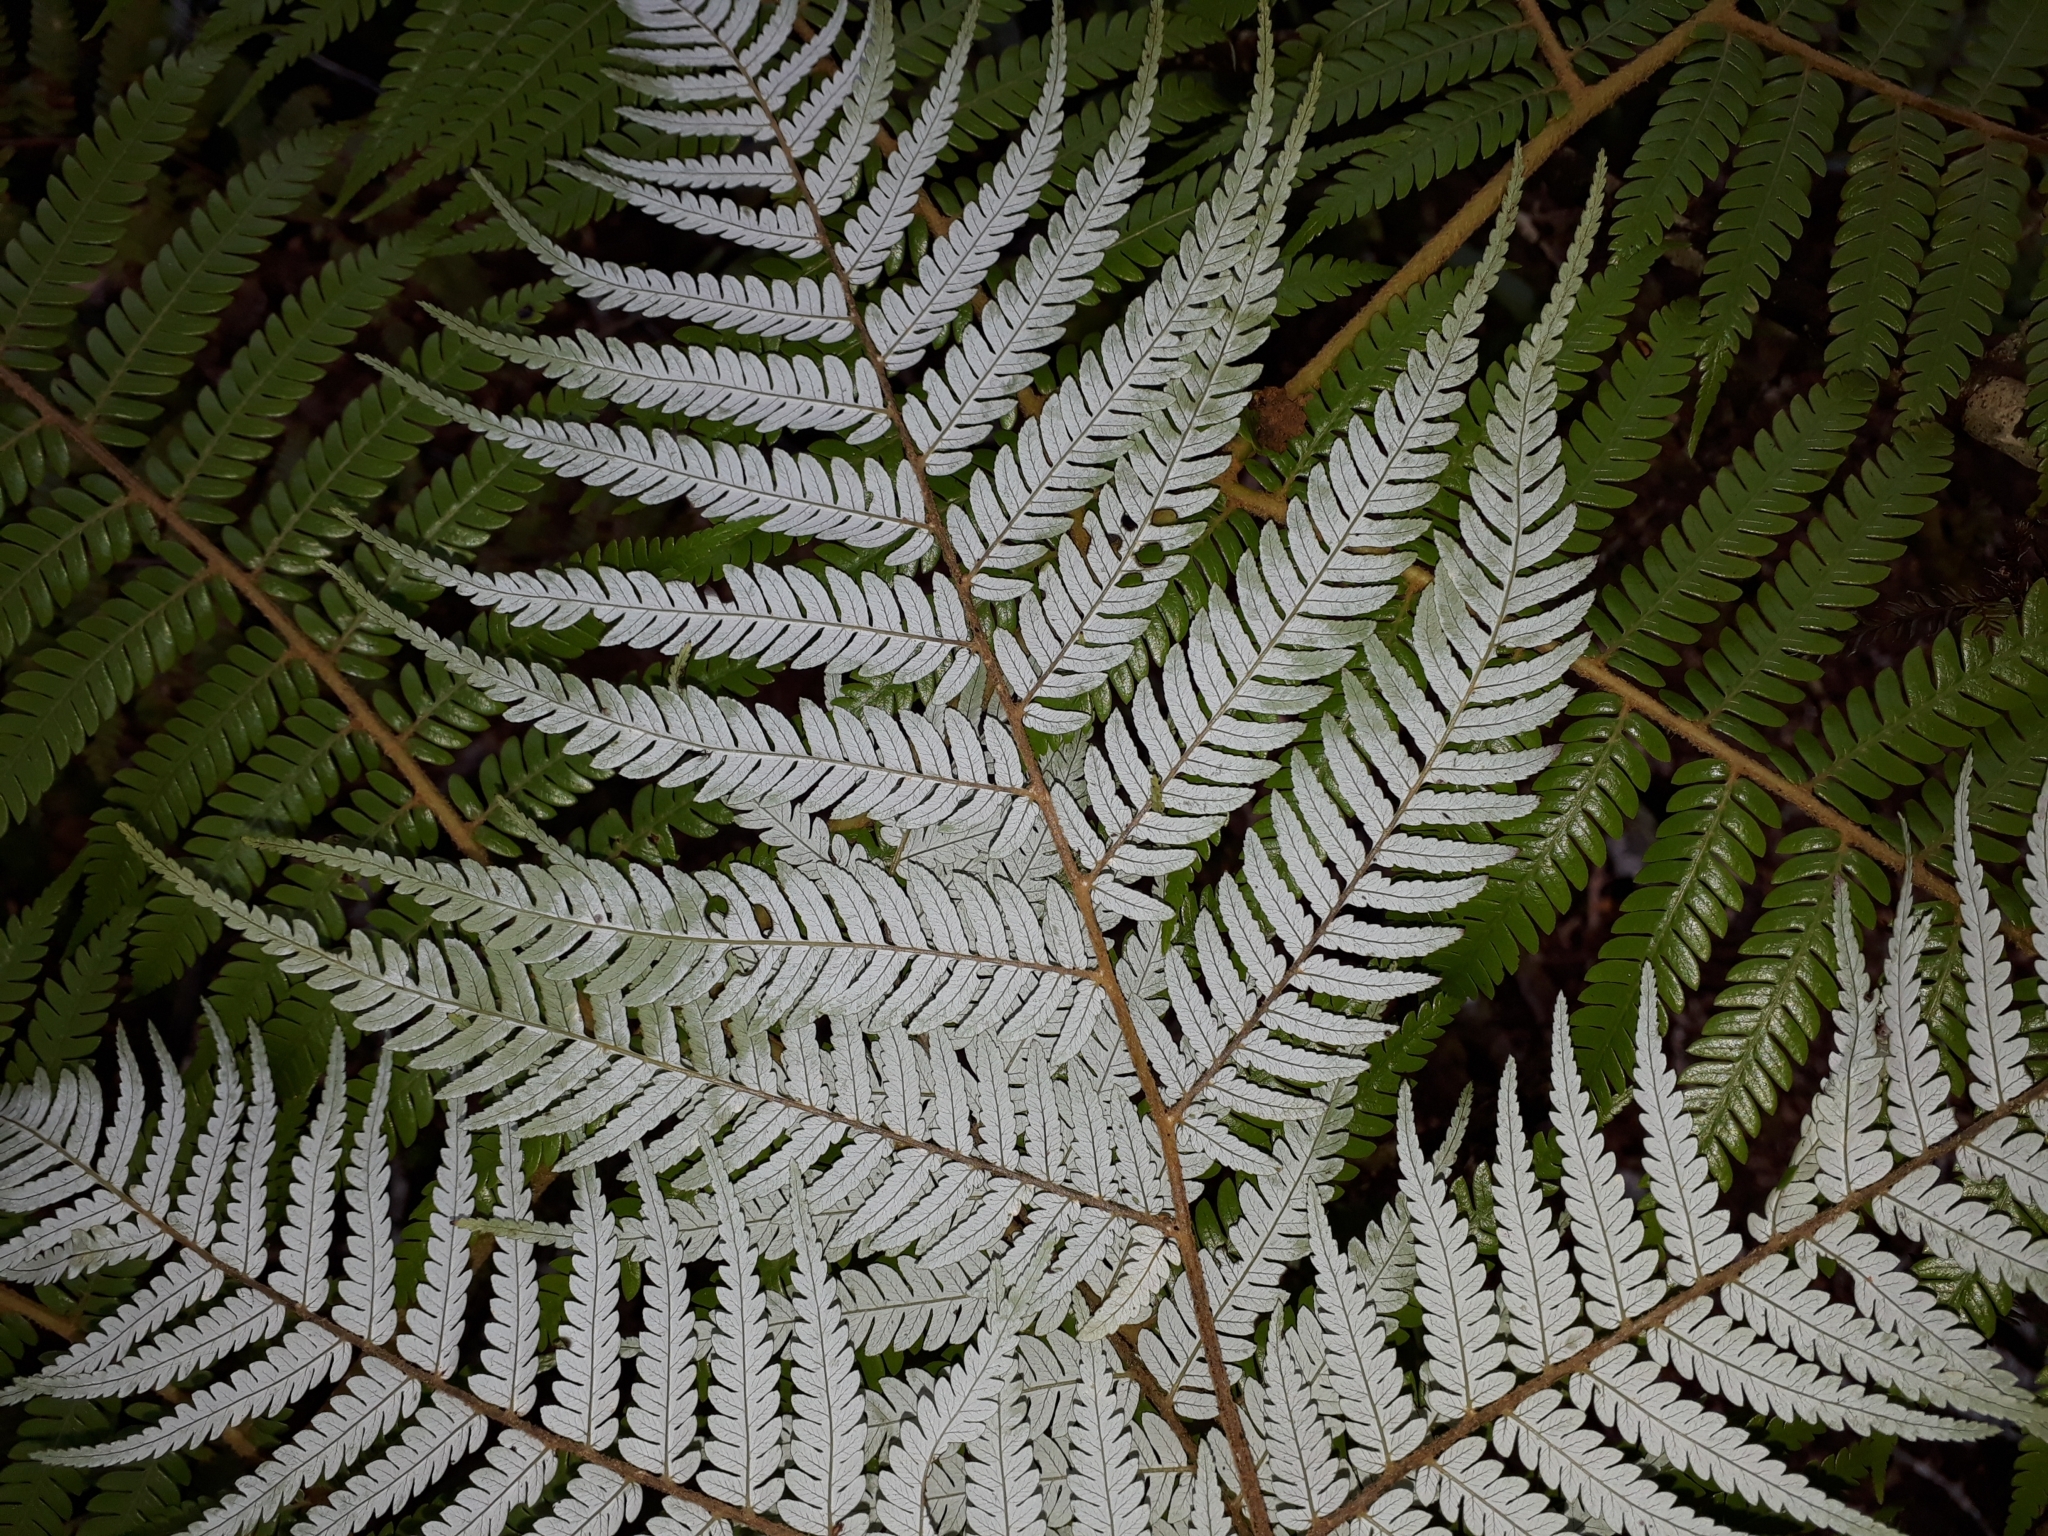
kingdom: Plantae
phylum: Tracheophyta
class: Polypodiopsida
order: Cyatheales
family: Cyatheaceae
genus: Alsophila
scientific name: Alsophila dealbata
